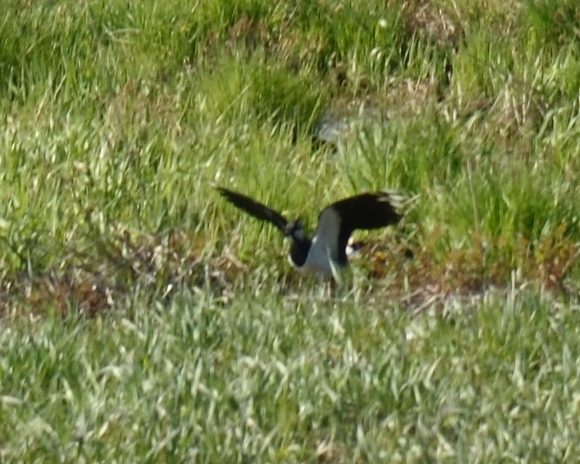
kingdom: Animalia
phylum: Chordata
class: Aves
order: Charadriiformes
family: Charadriidae
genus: Vanellus
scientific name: Vanellus vanellus
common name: Northern lapwing
